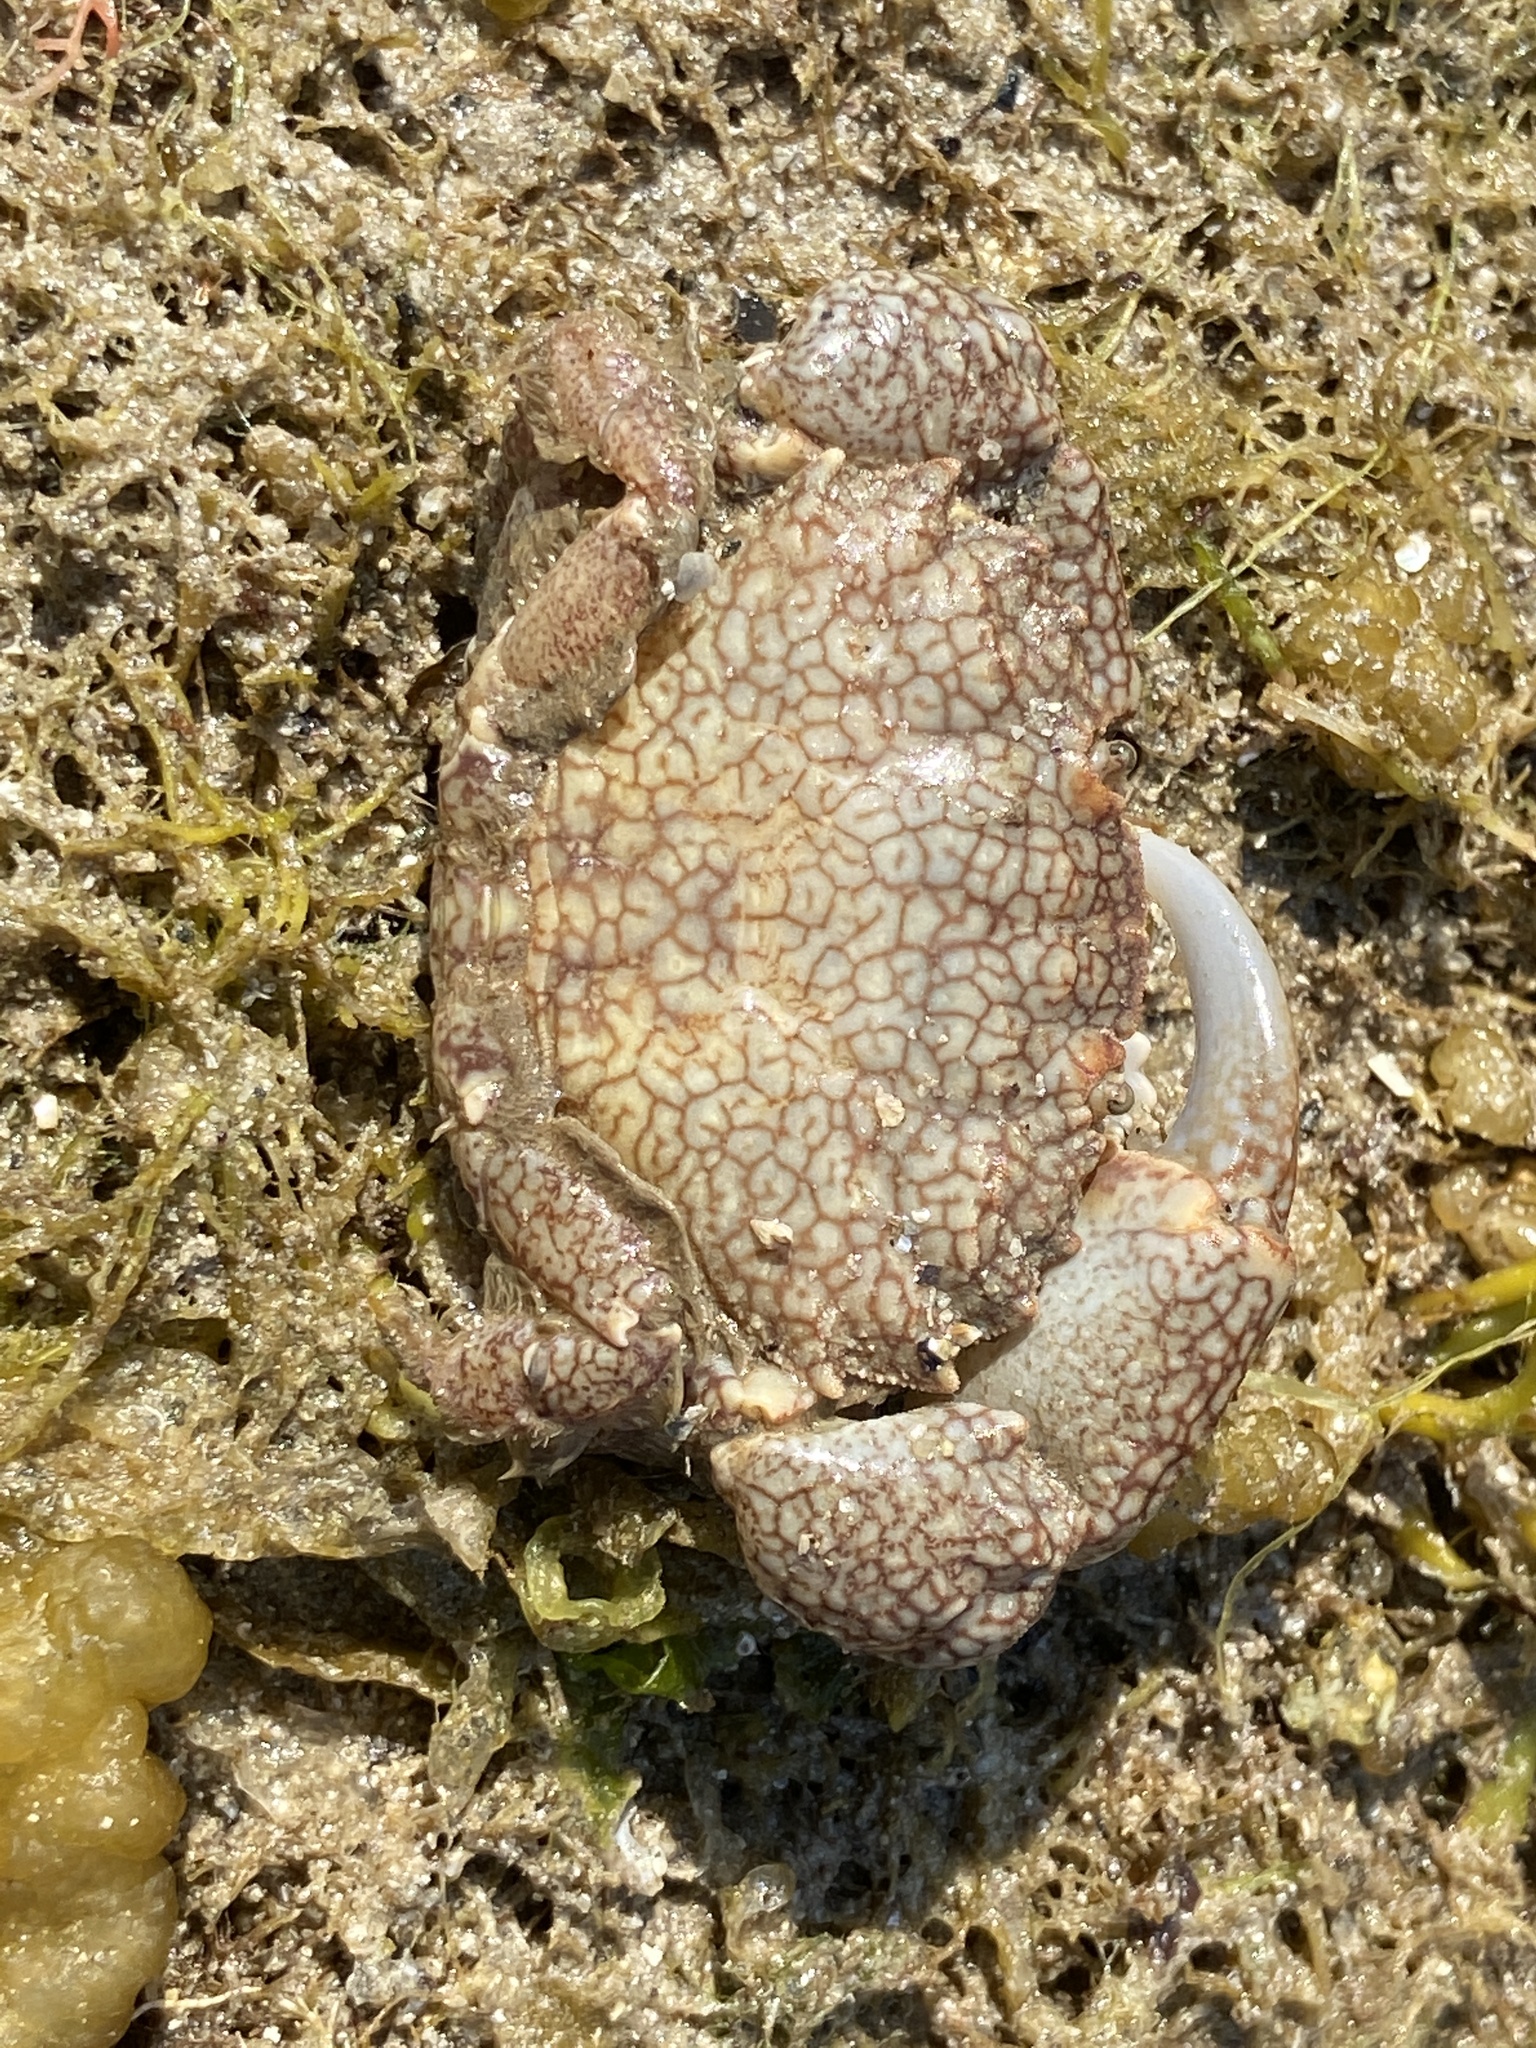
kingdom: Animalia
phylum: Arthropoda
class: Malacostraca
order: Decapoda
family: Xanthidae
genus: Xantho
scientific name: Xantho pilipes
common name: Risso's crab
